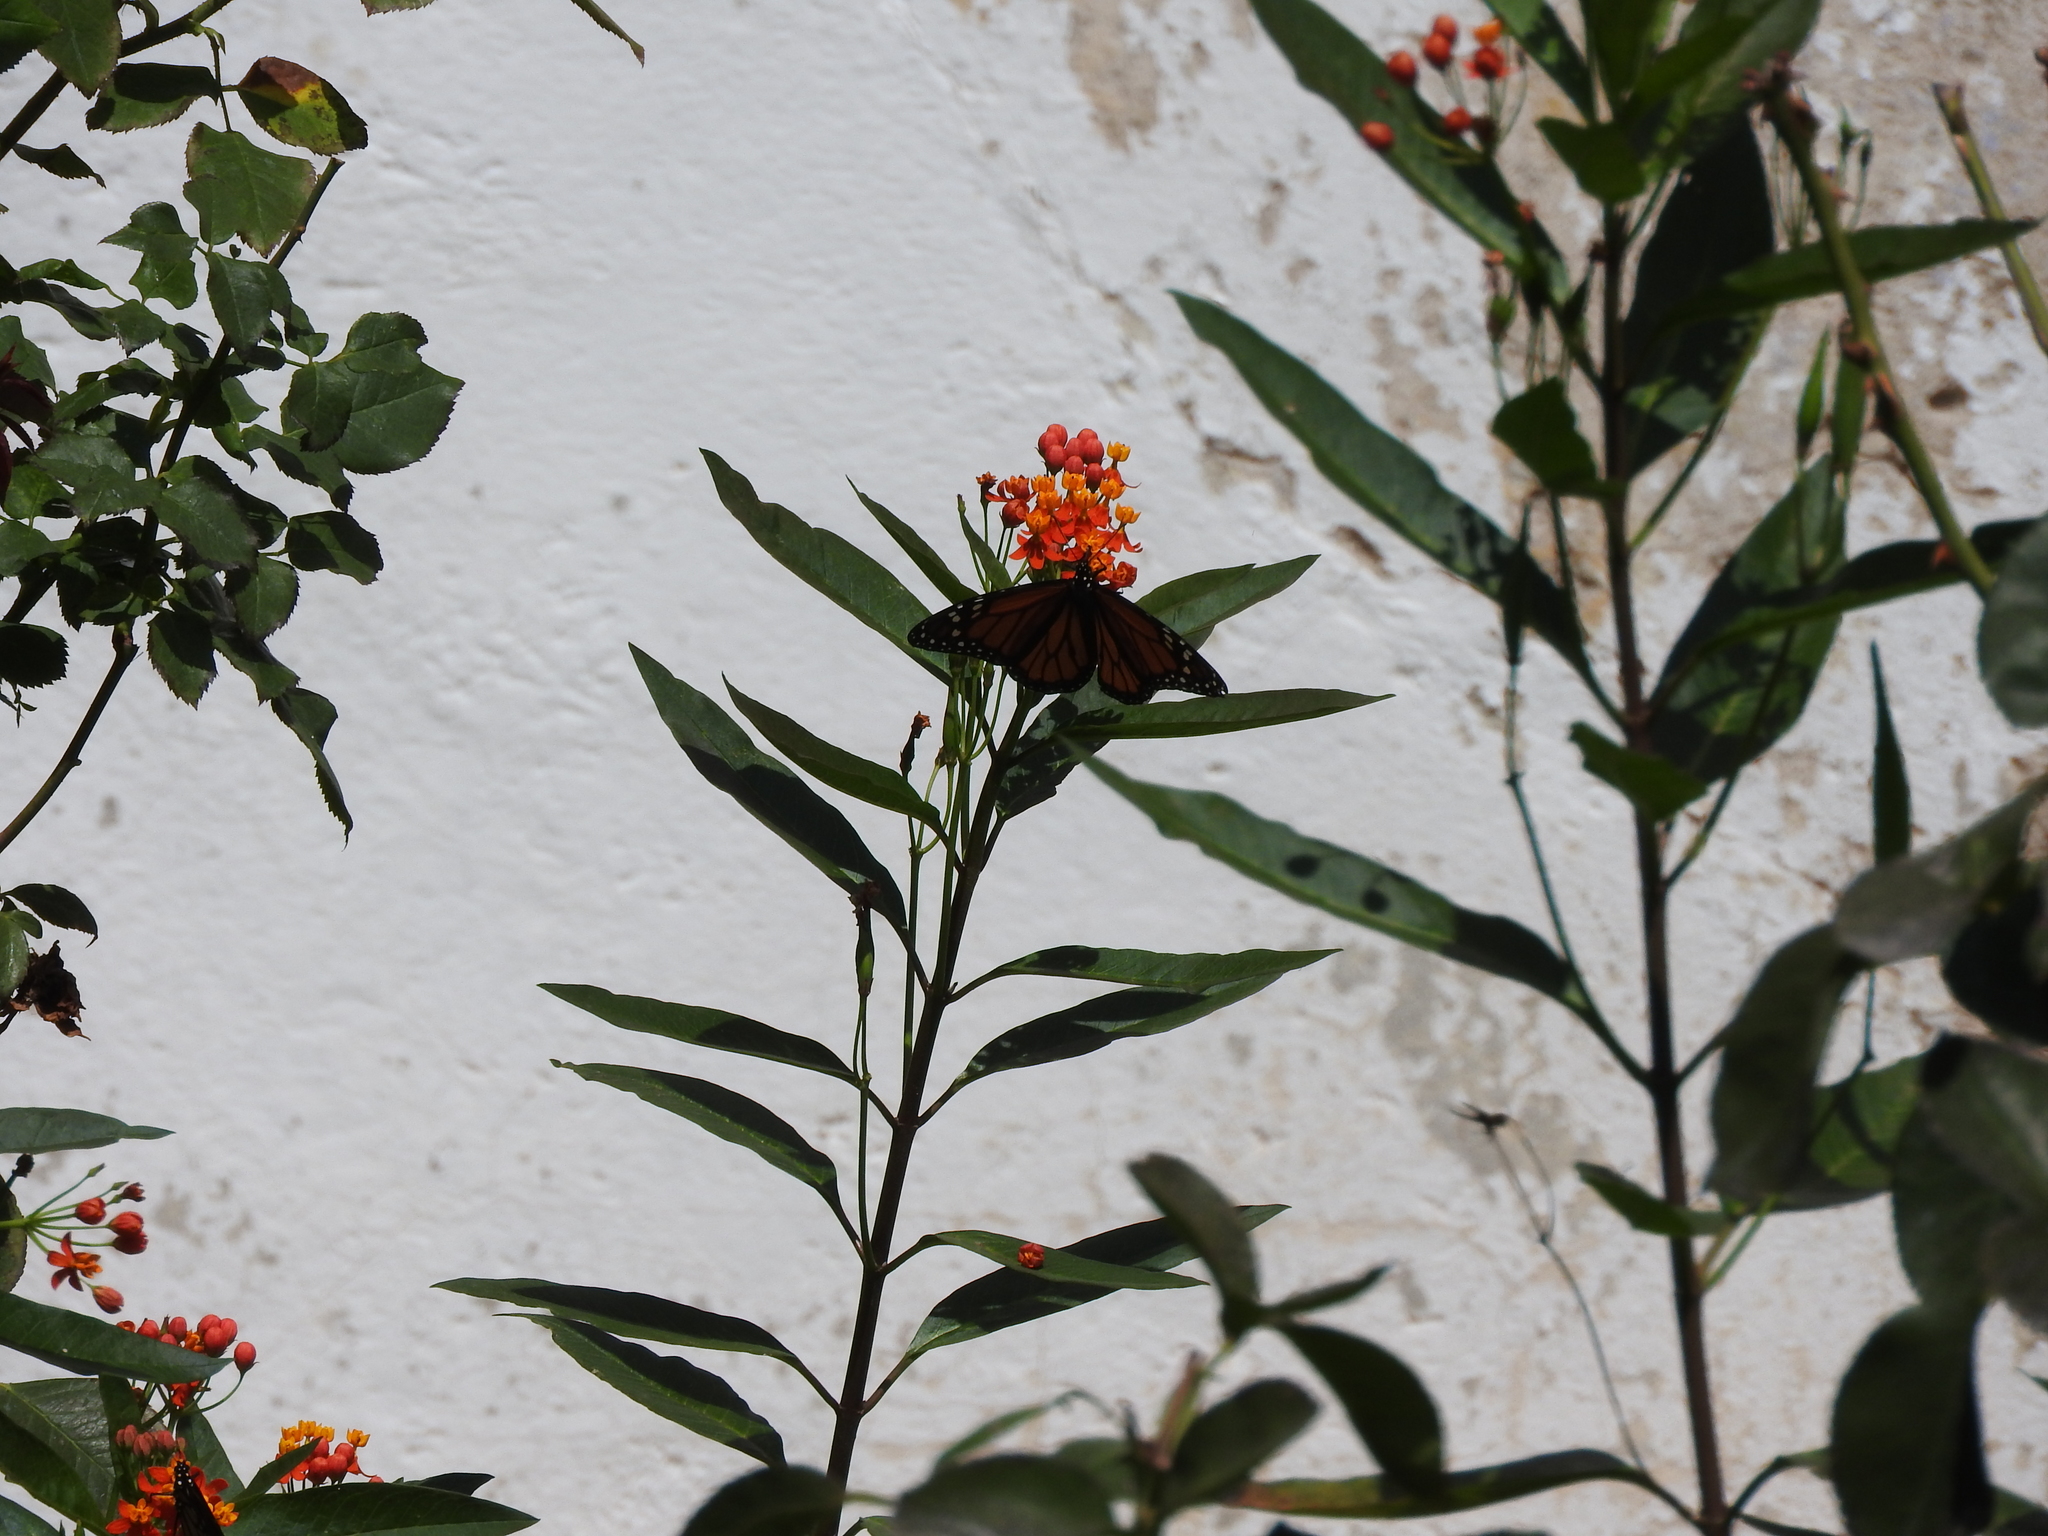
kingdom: Animalia
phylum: Arthropoda
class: Insecta
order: Lepidoptera
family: Nymphalidae
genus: Danaus
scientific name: Danaus plexippus
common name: Monarch
